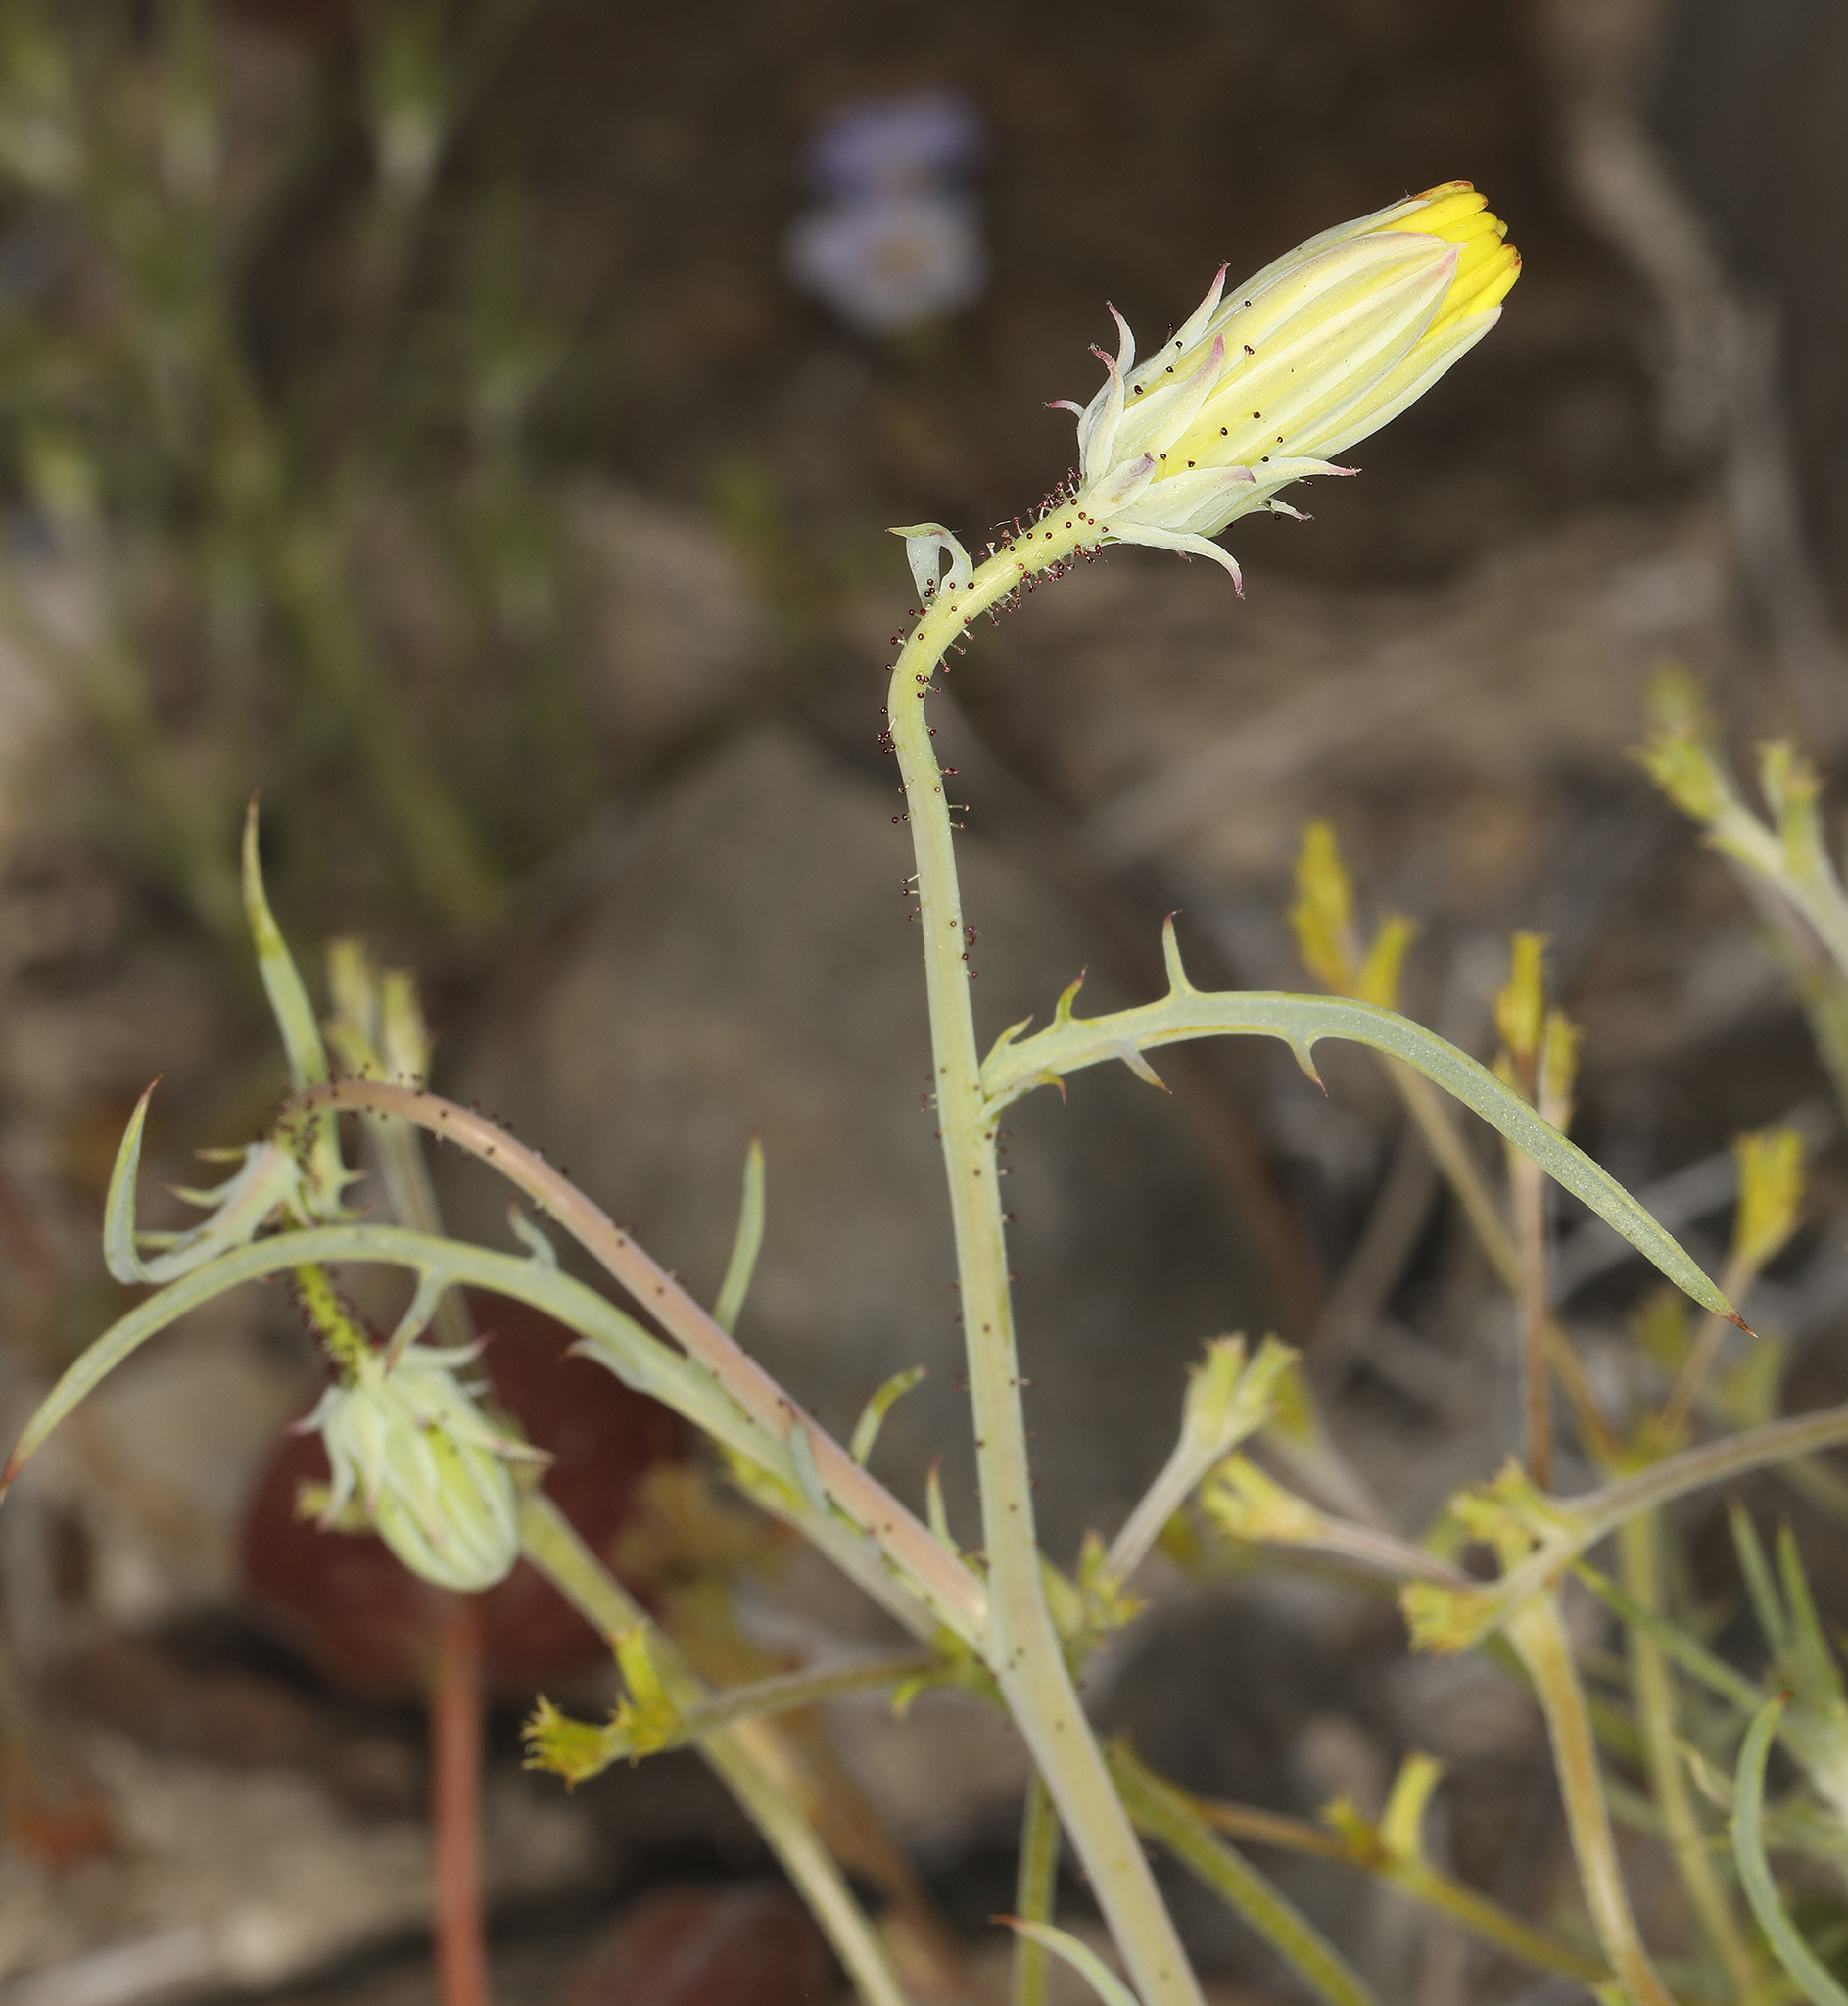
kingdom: Plantae
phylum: Tracheophyta
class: Magnoliopsida
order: Asterales
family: Asteraceae
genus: Calycoseris
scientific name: Calycoseris parryi
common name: Yellow tackstem
